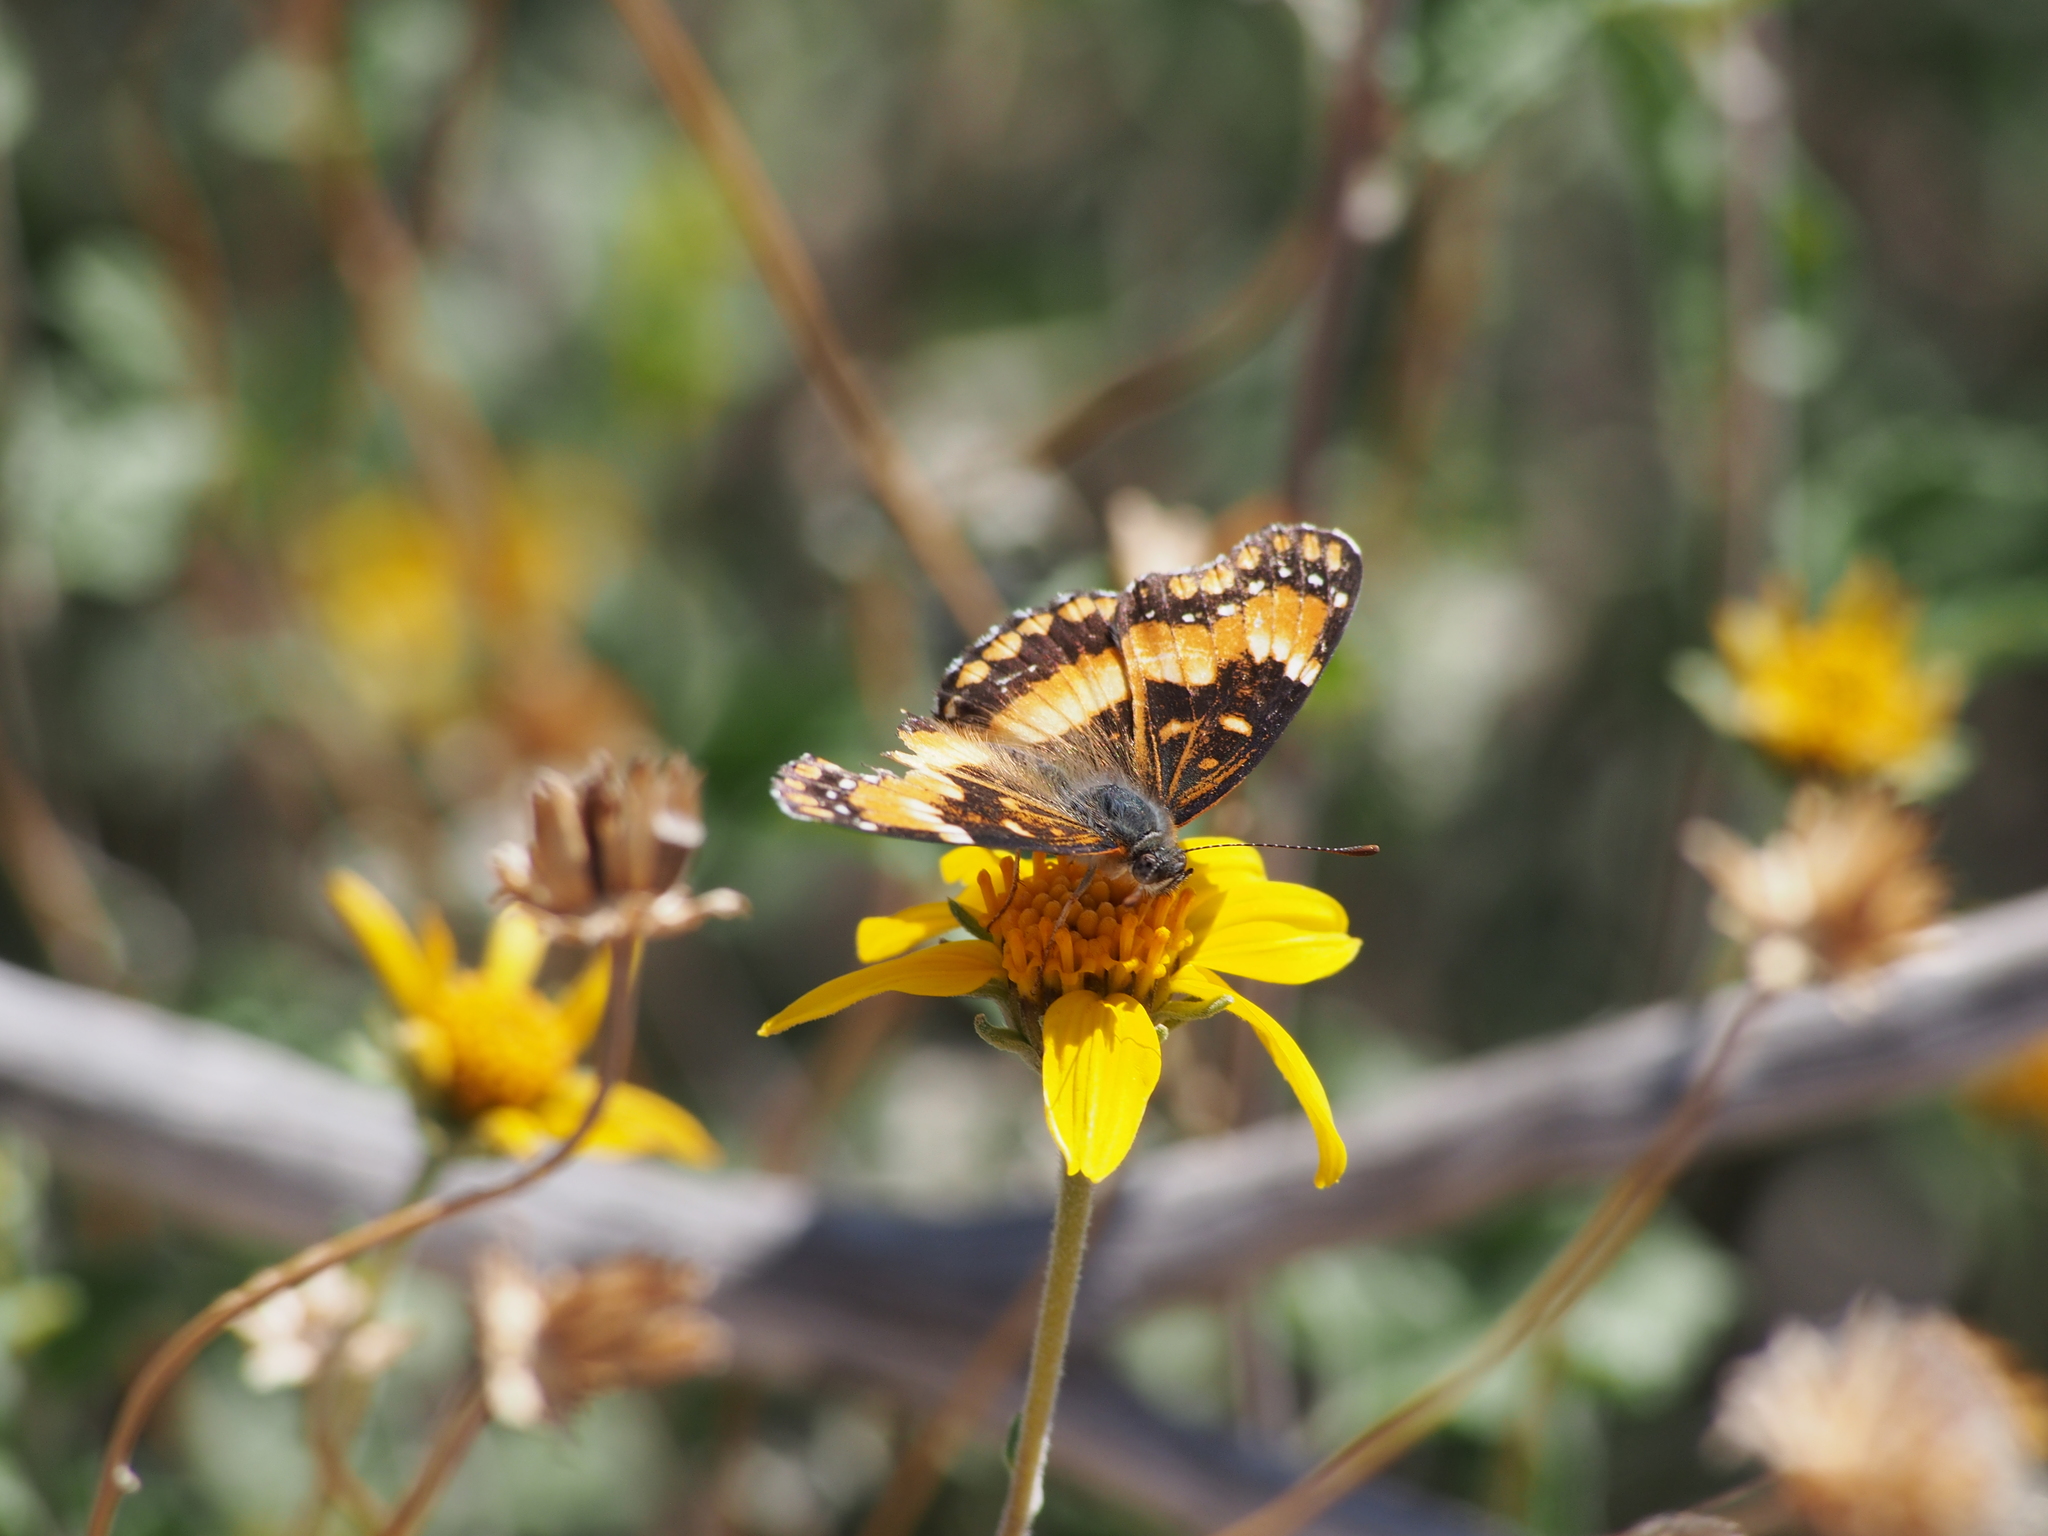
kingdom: Animalia
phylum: Arthropoda
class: Insecta
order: Lepidoptera
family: Nymphalidae
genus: Chlosyne
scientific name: Chlosyne californica
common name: California patch
